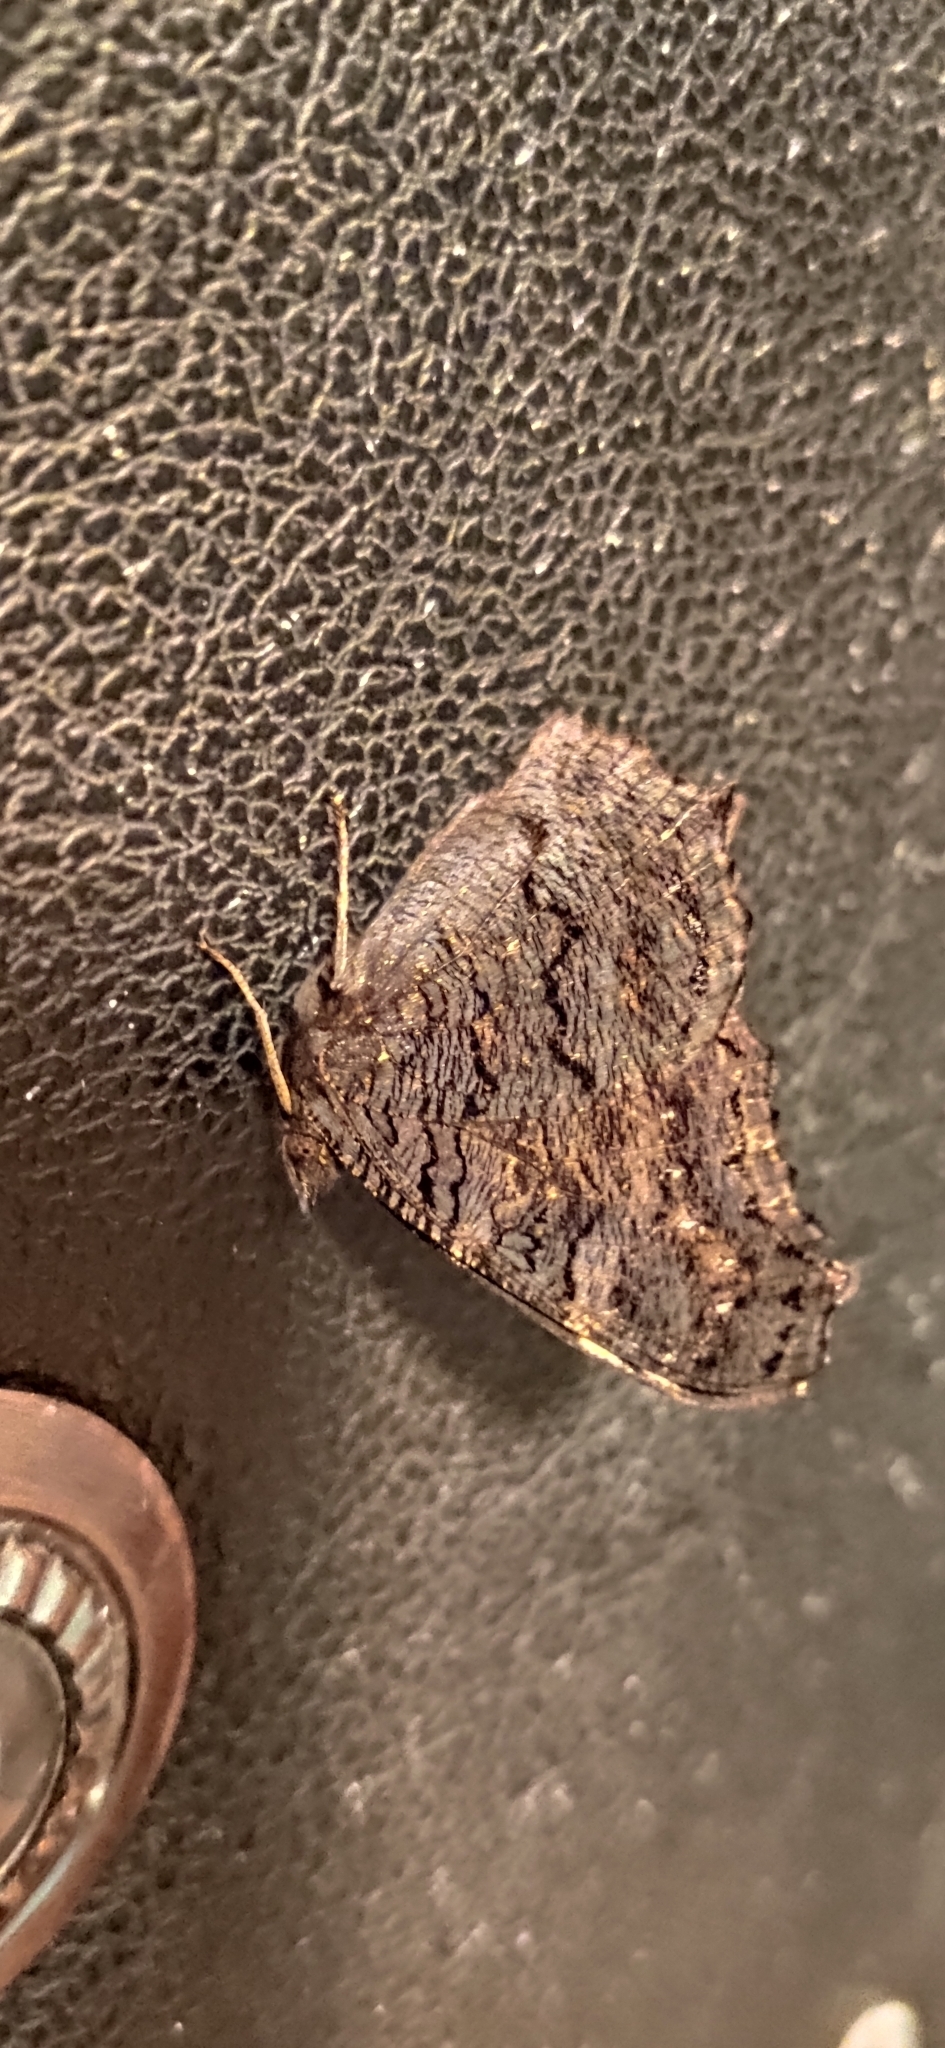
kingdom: Animalia
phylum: Arthropoda
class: Insecta
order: Lepidoptera
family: Nymphalidae
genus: Aglais
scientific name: Aglais io
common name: Peacock
